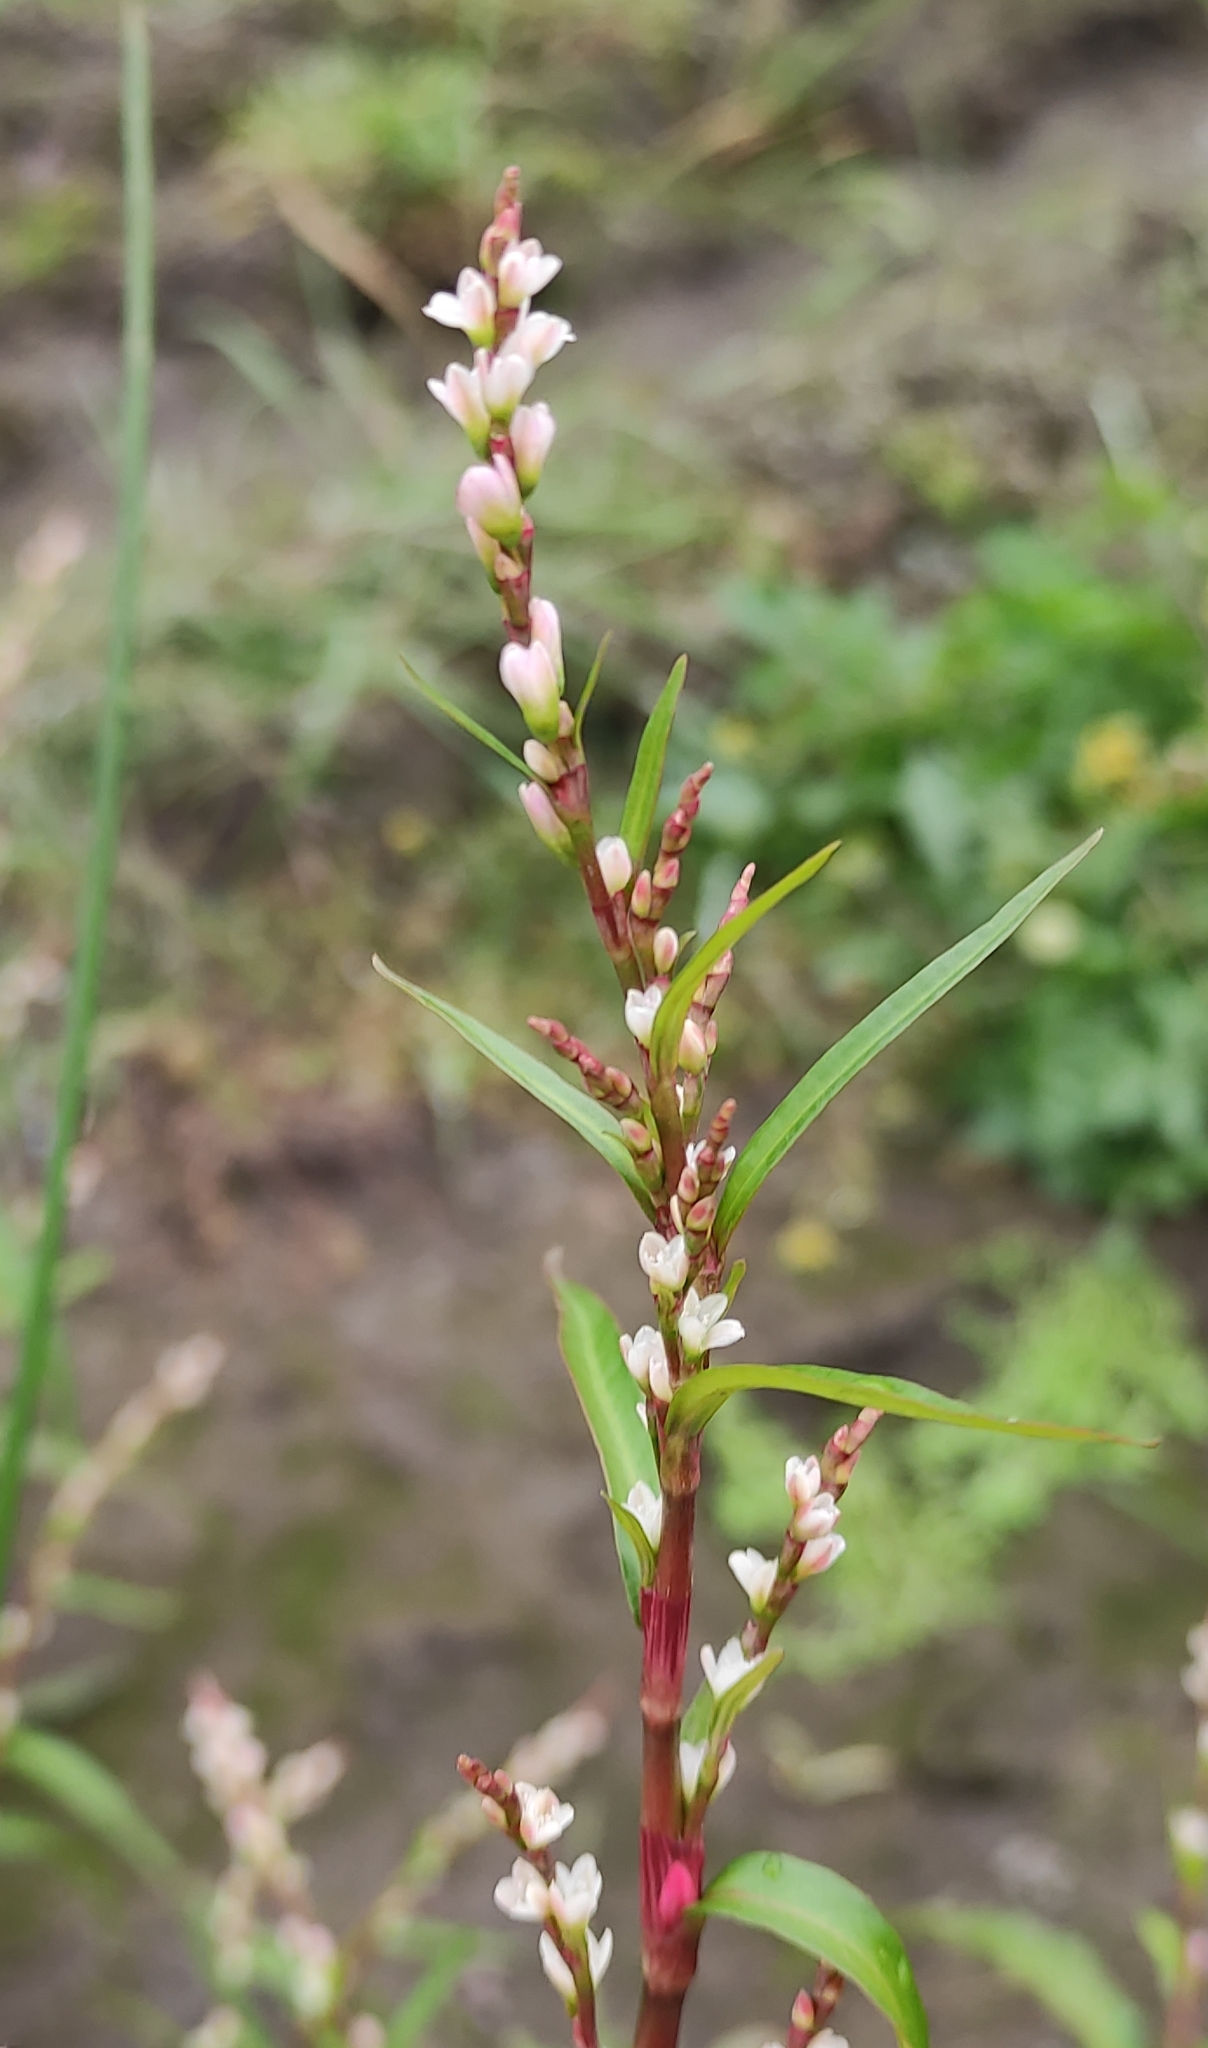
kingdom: Plantae
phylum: Tracheophyta
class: Magnoliopsida
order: Caryophyllales
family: Polygonaceae
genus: Persicaria
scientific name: Persicaria hydropiper
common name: Water-pepper
